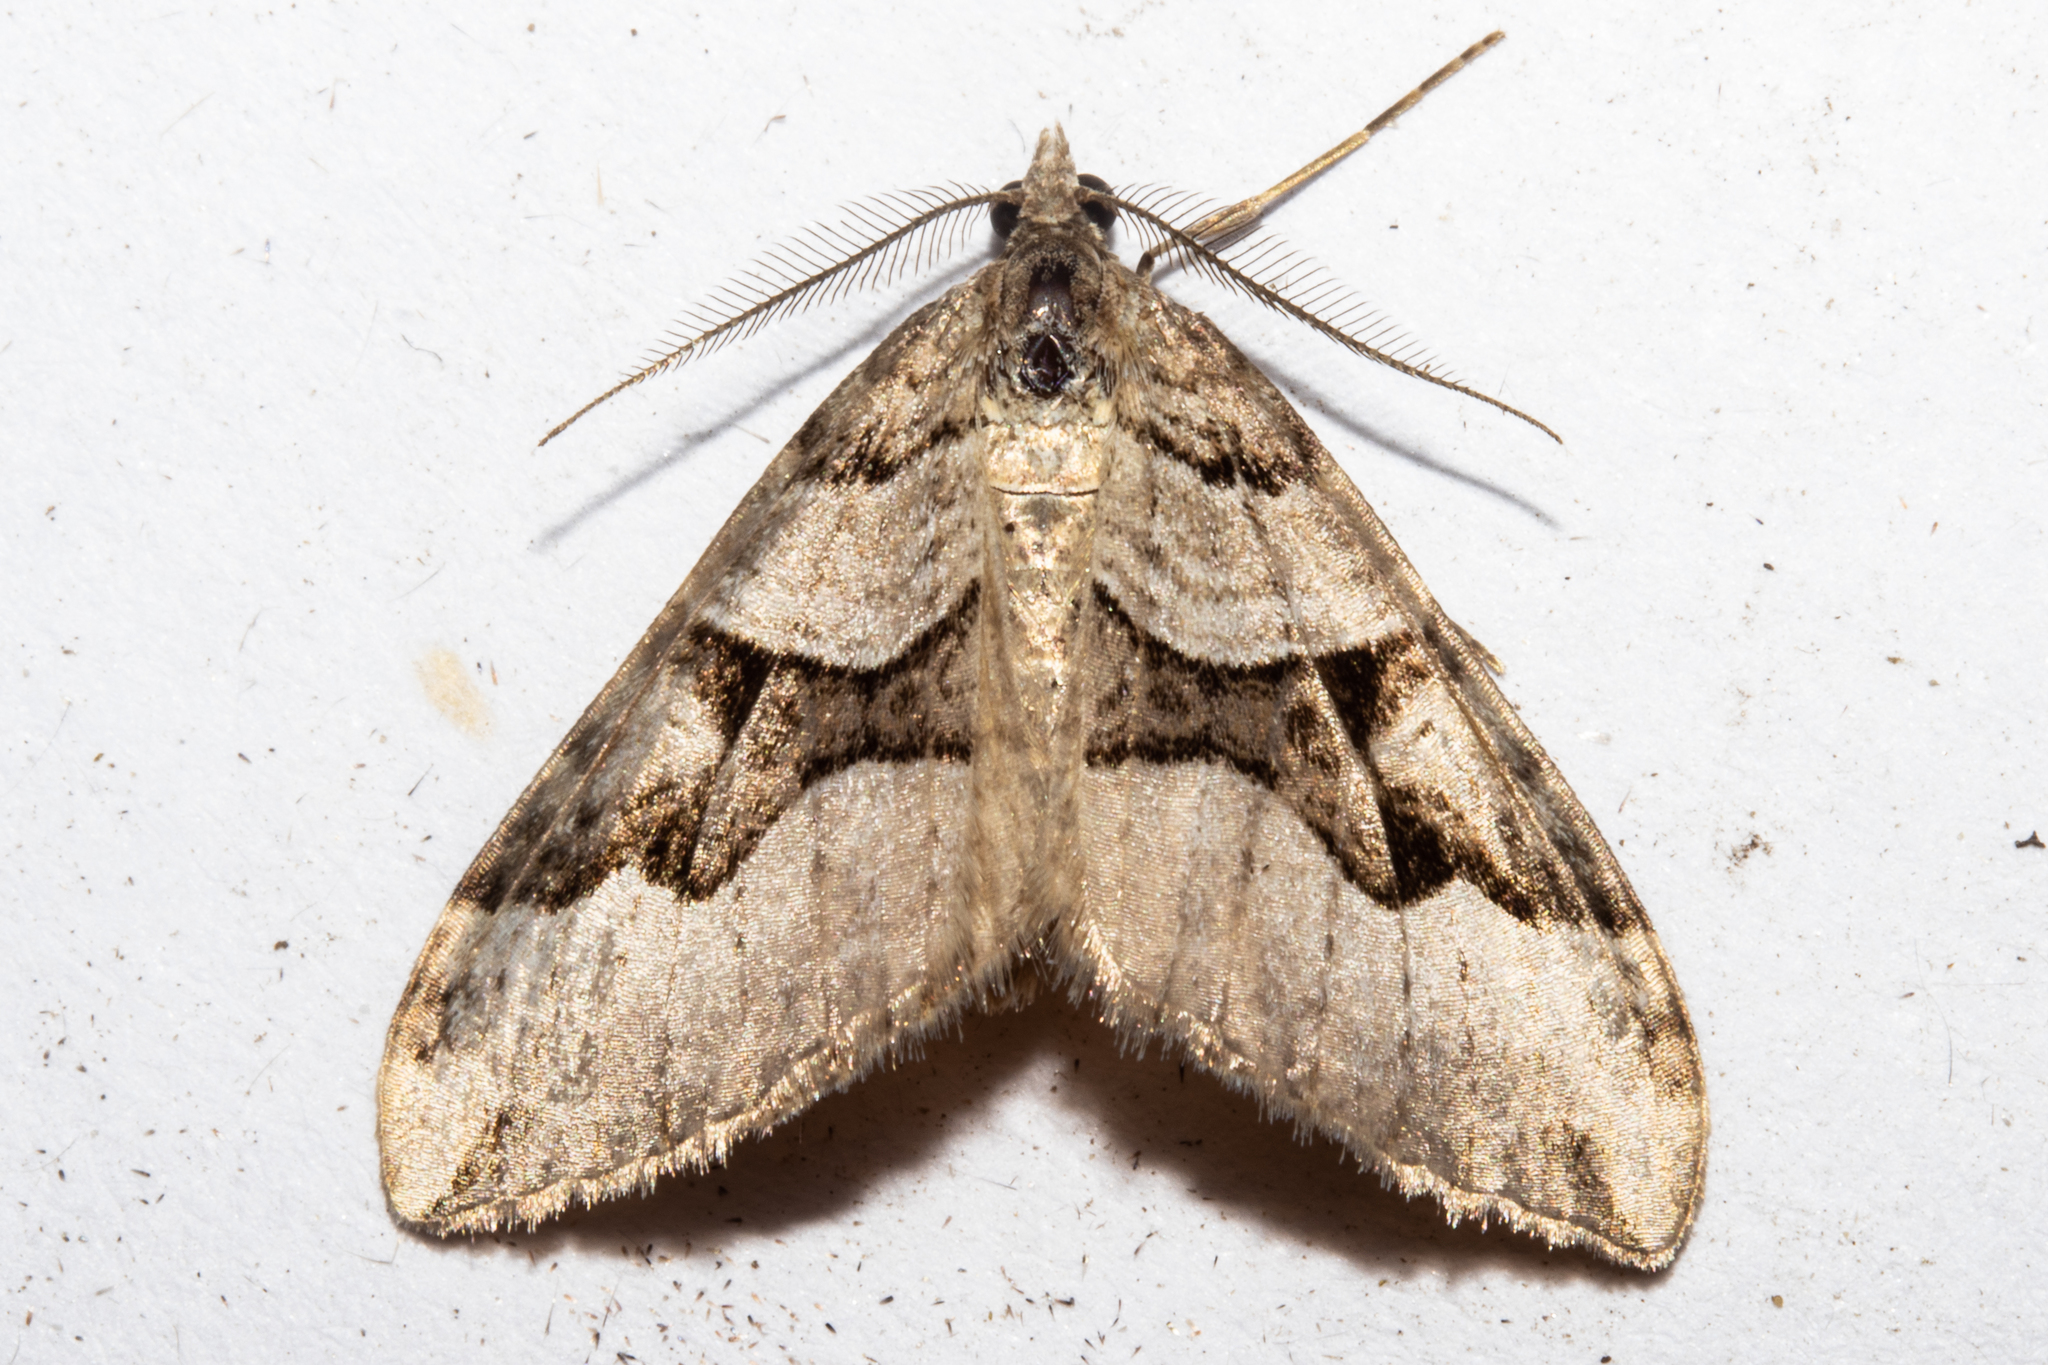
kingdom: Animalia
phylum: Arthropoda
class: Insecta
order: Lepidoptera
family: Geometridae
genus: Xanthorhoe
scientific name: Xanthorhoe semifissata
